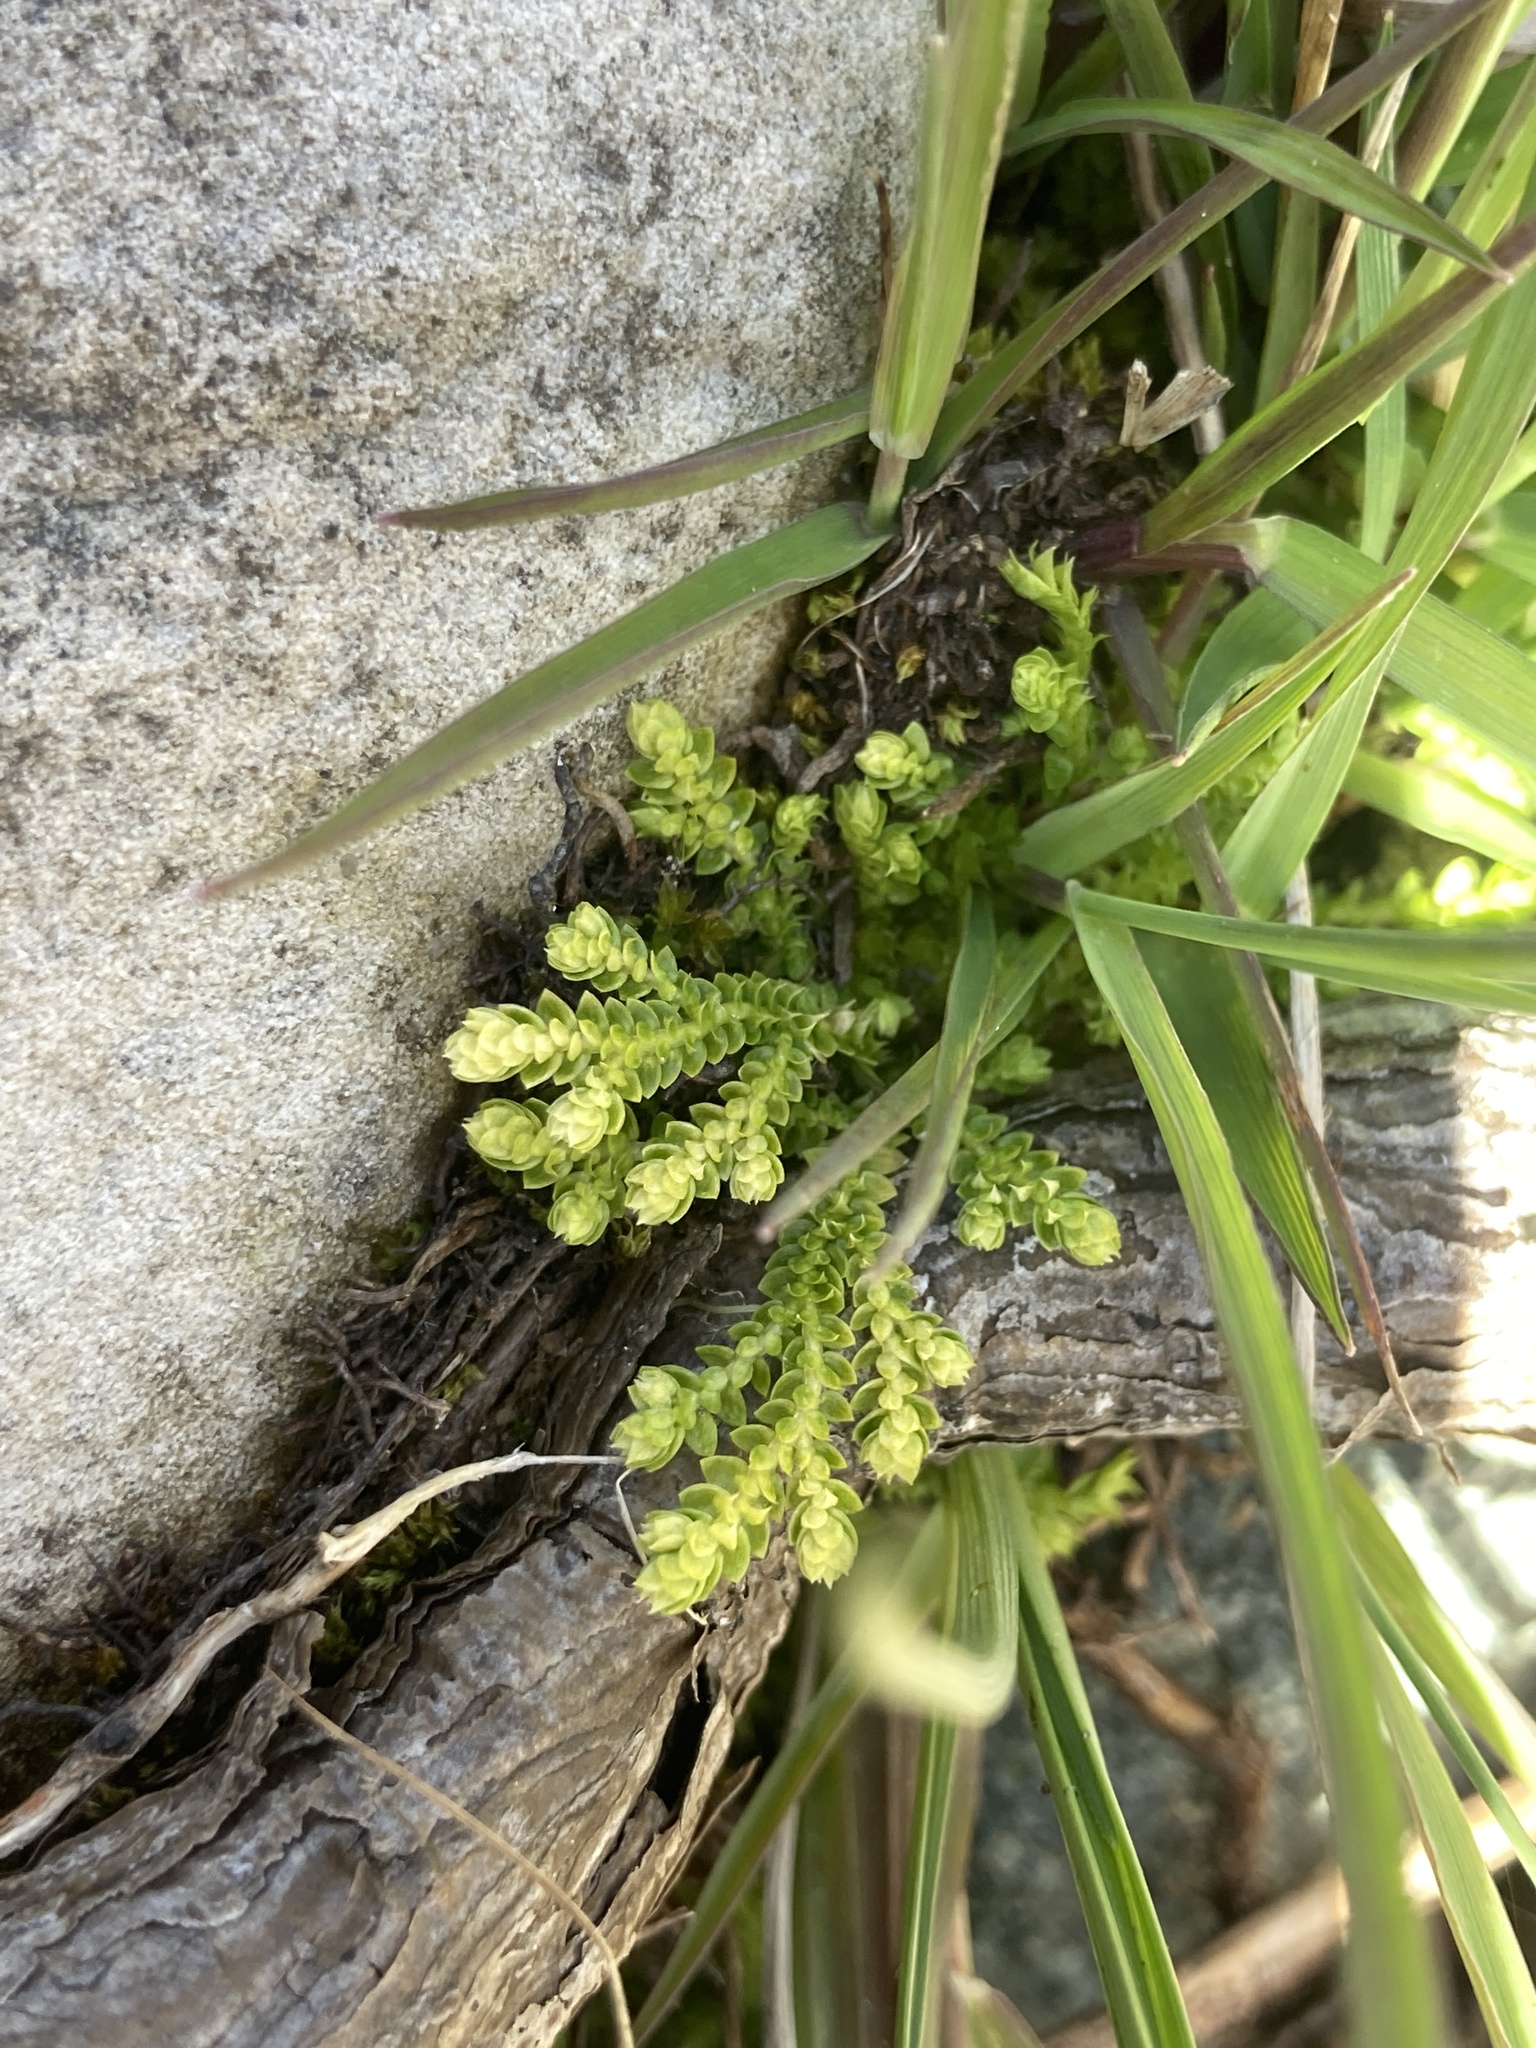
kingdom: Plantae
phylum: Tracheophyta
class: Lycopodiopsida
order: Selaginellales
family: Selaginellaceae
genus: Selaginella
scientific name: Selaginella eclipes
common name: Buck's meadow spikemoss
